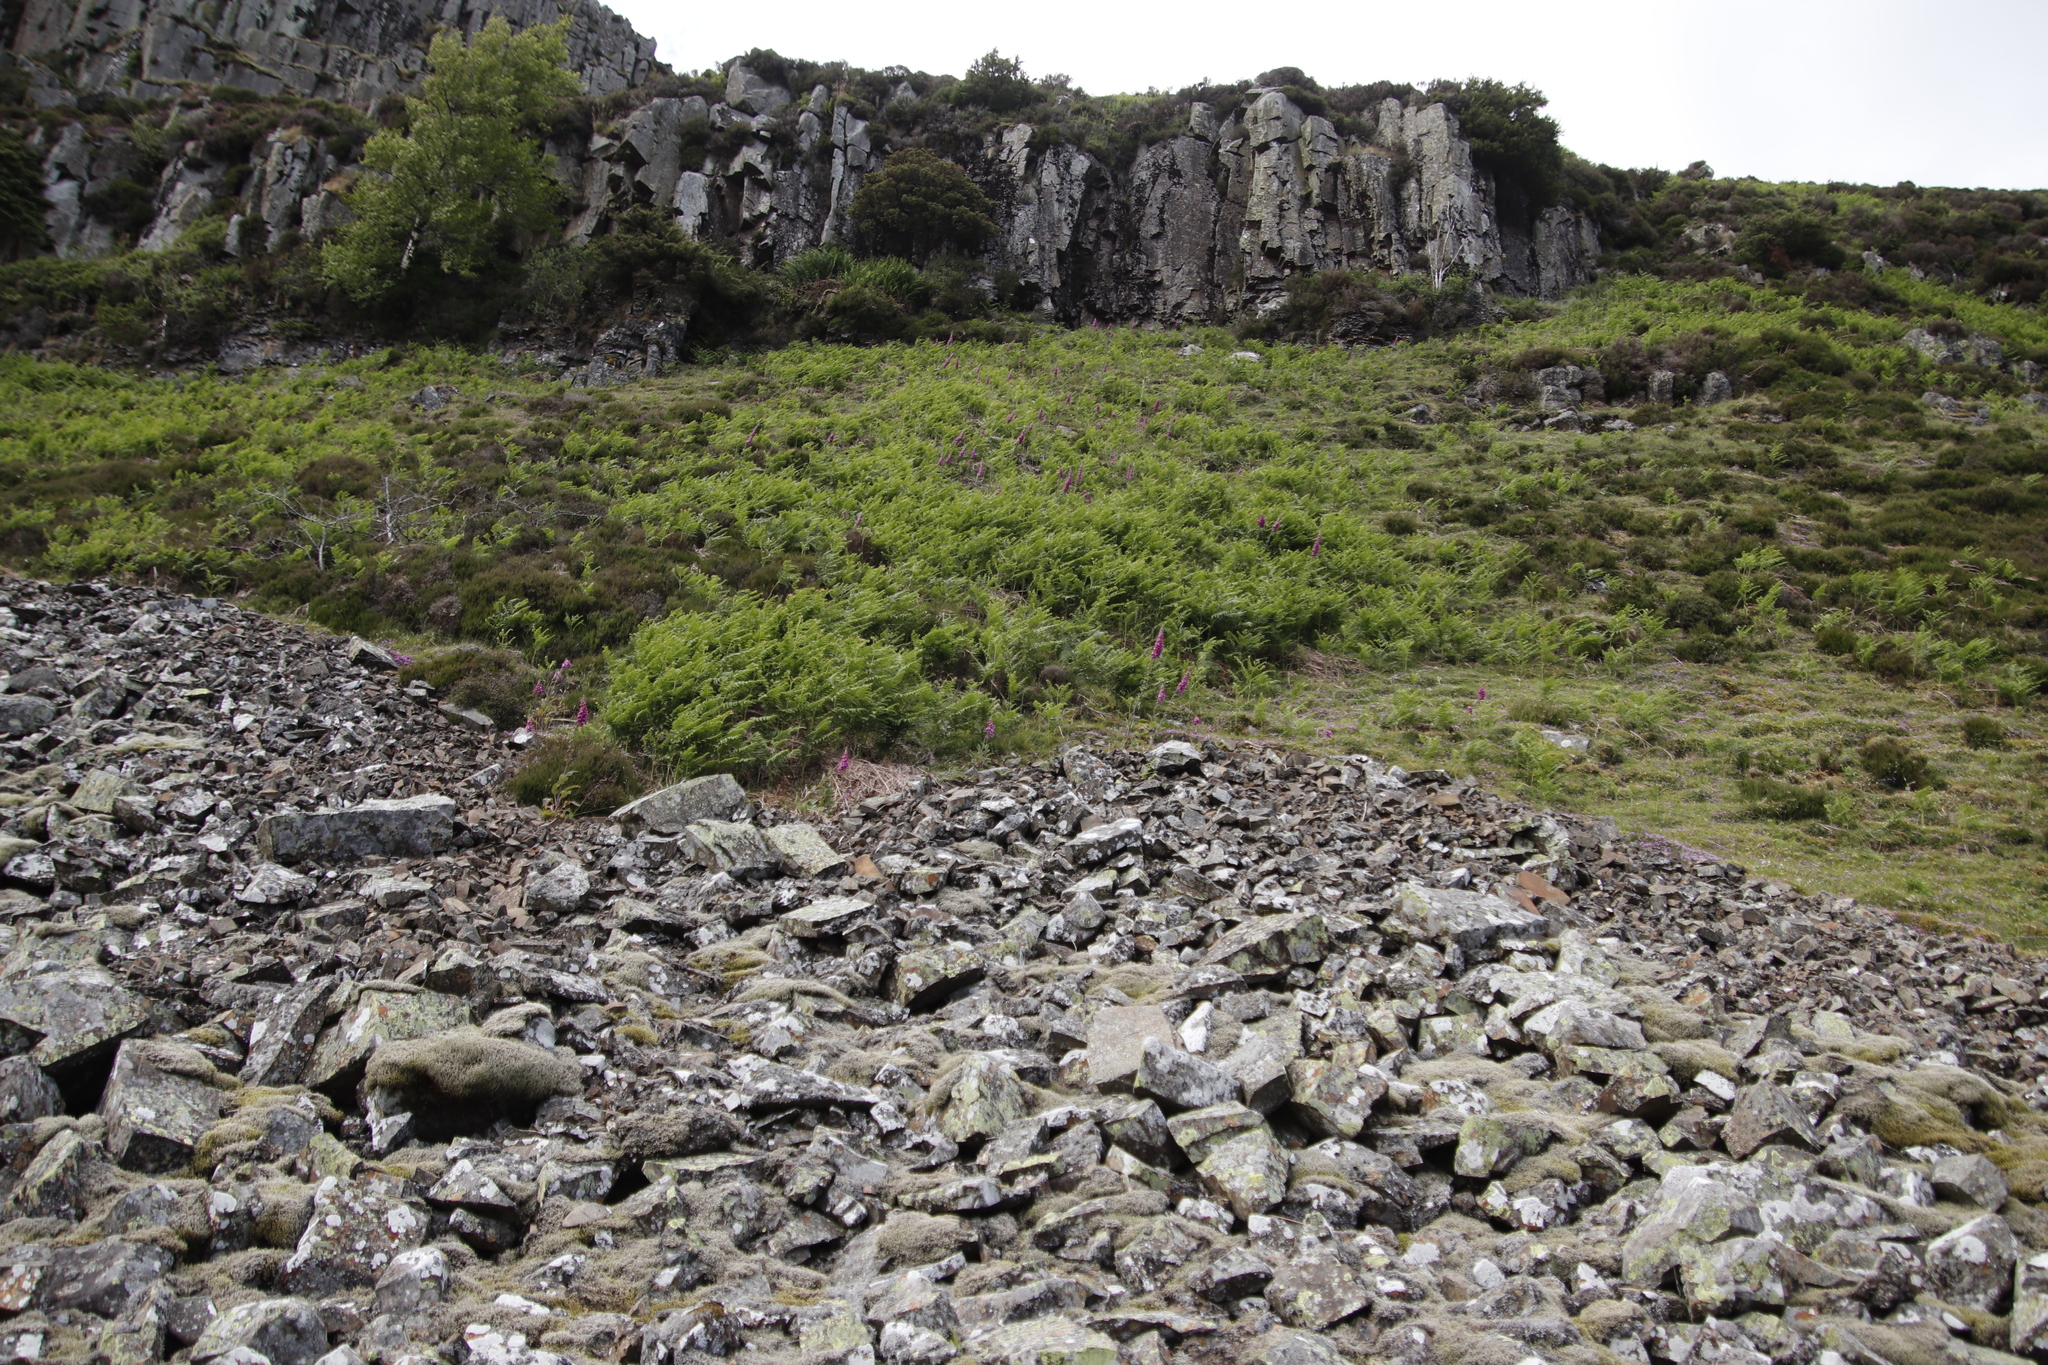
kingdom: Plantae
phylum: Tracheophyta
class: Magnoliopsida
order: Lamiales
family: Plantaginaceae
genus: Digitalis
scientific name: Digitalis purpurea
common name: Foxglove
